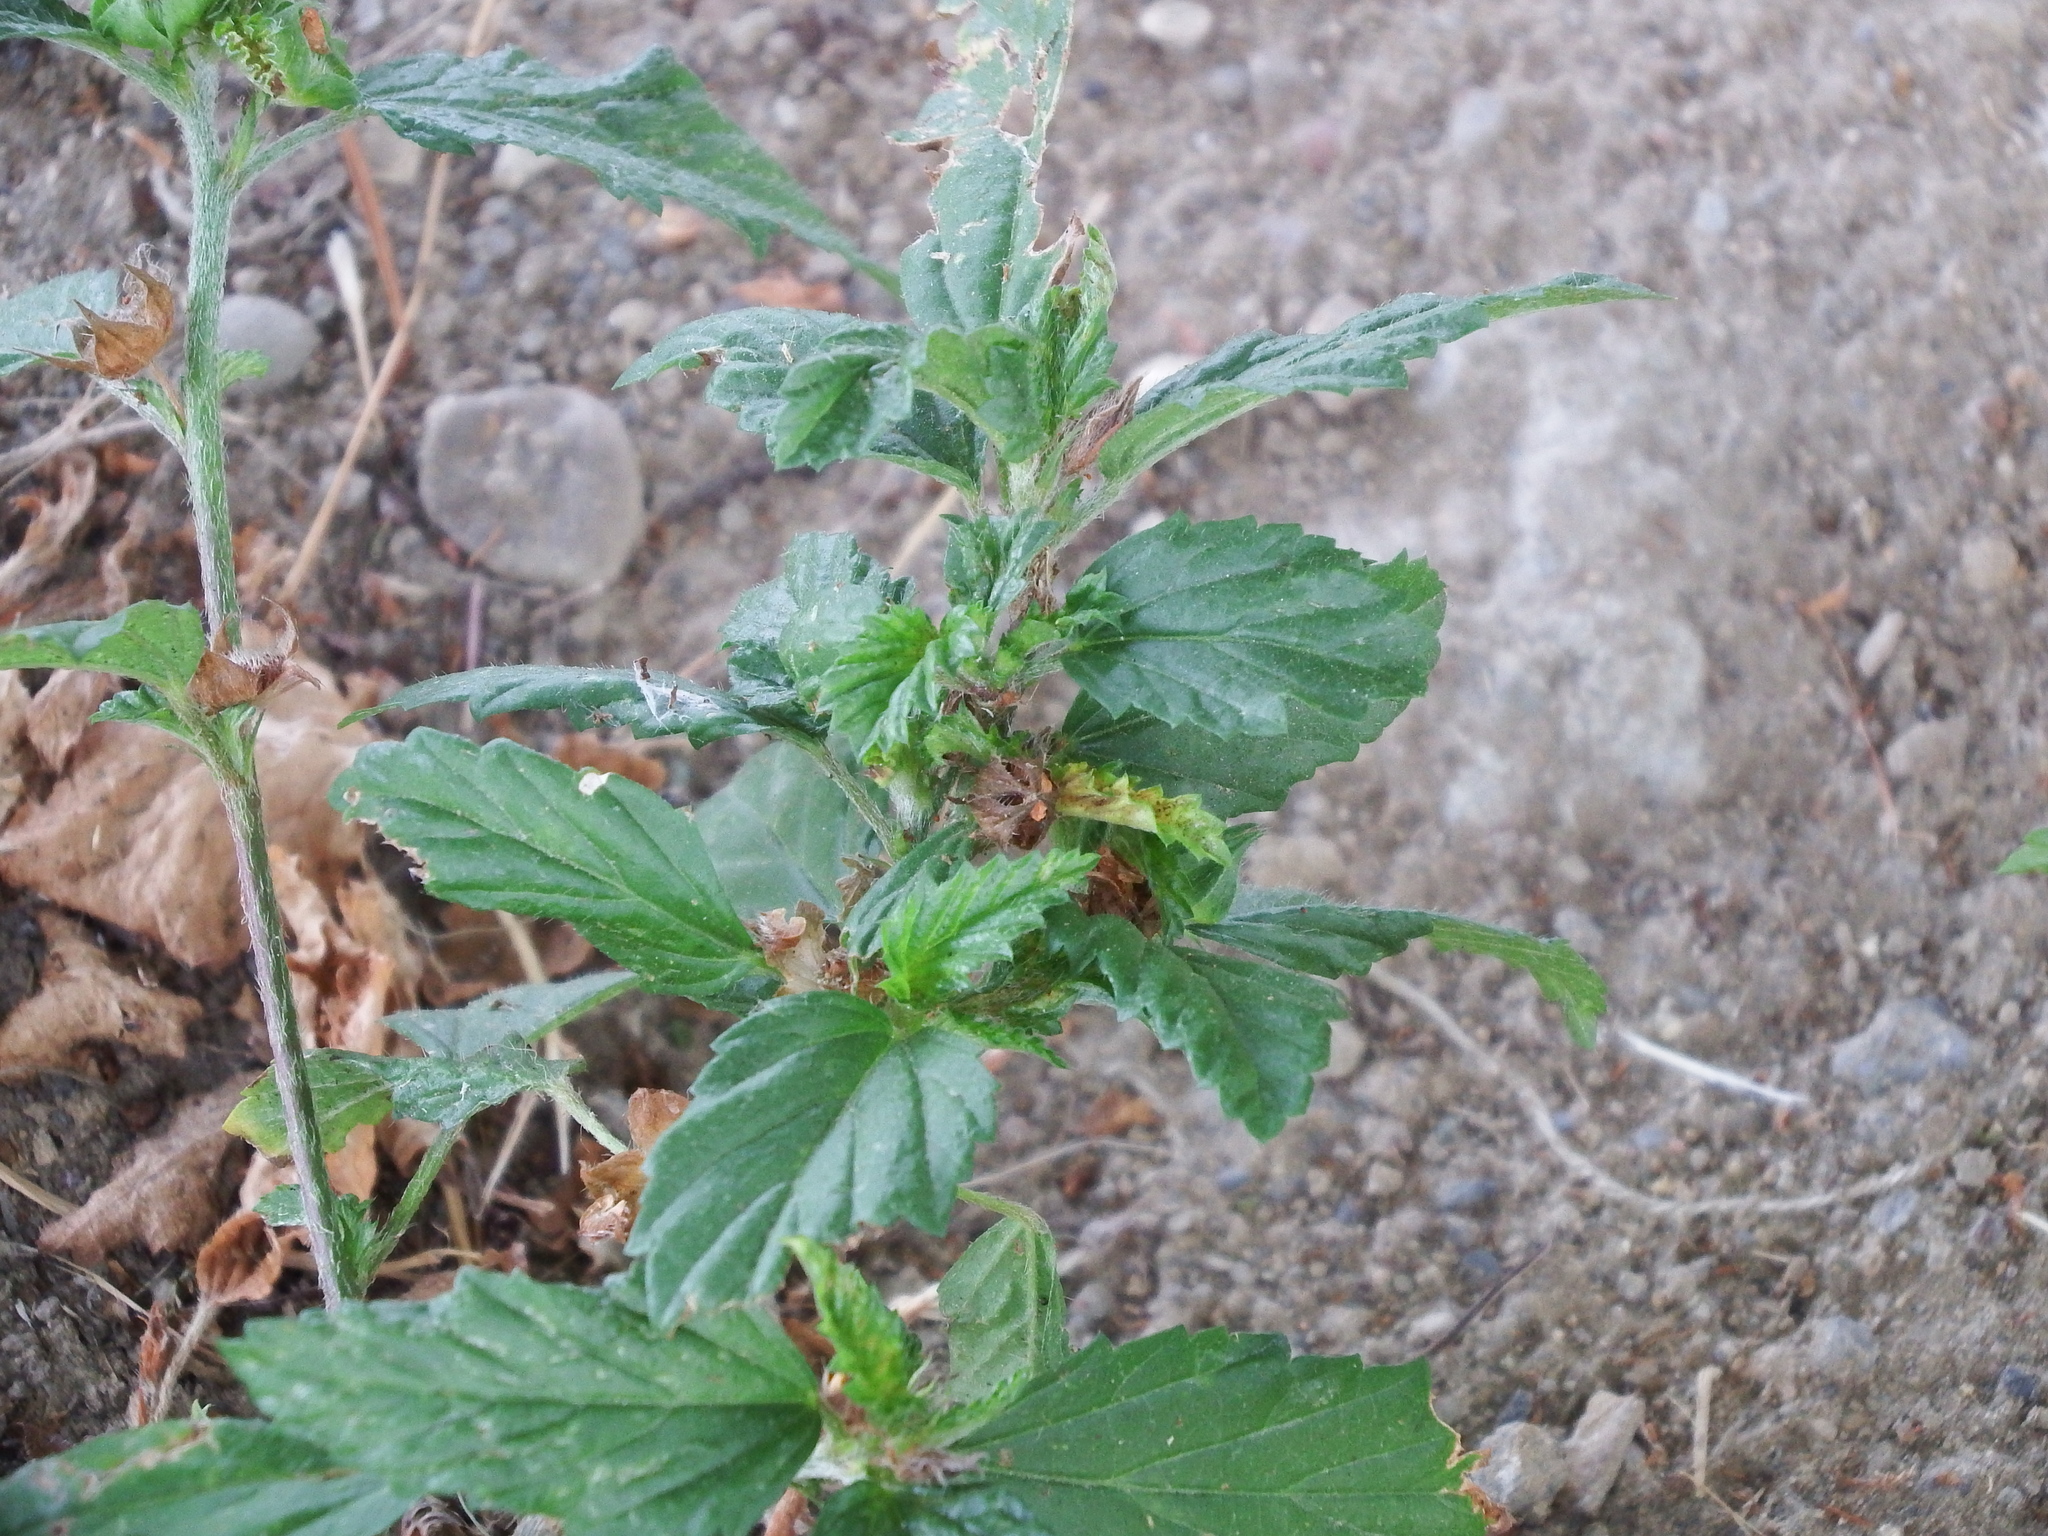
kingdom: Plantae
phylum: Tracheophyta
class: Magnoliopsida
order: Malvales
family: Malvaceae
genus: Malvastrum
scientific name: Malvastrum coromandelianum
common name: Threelobe false mallow
